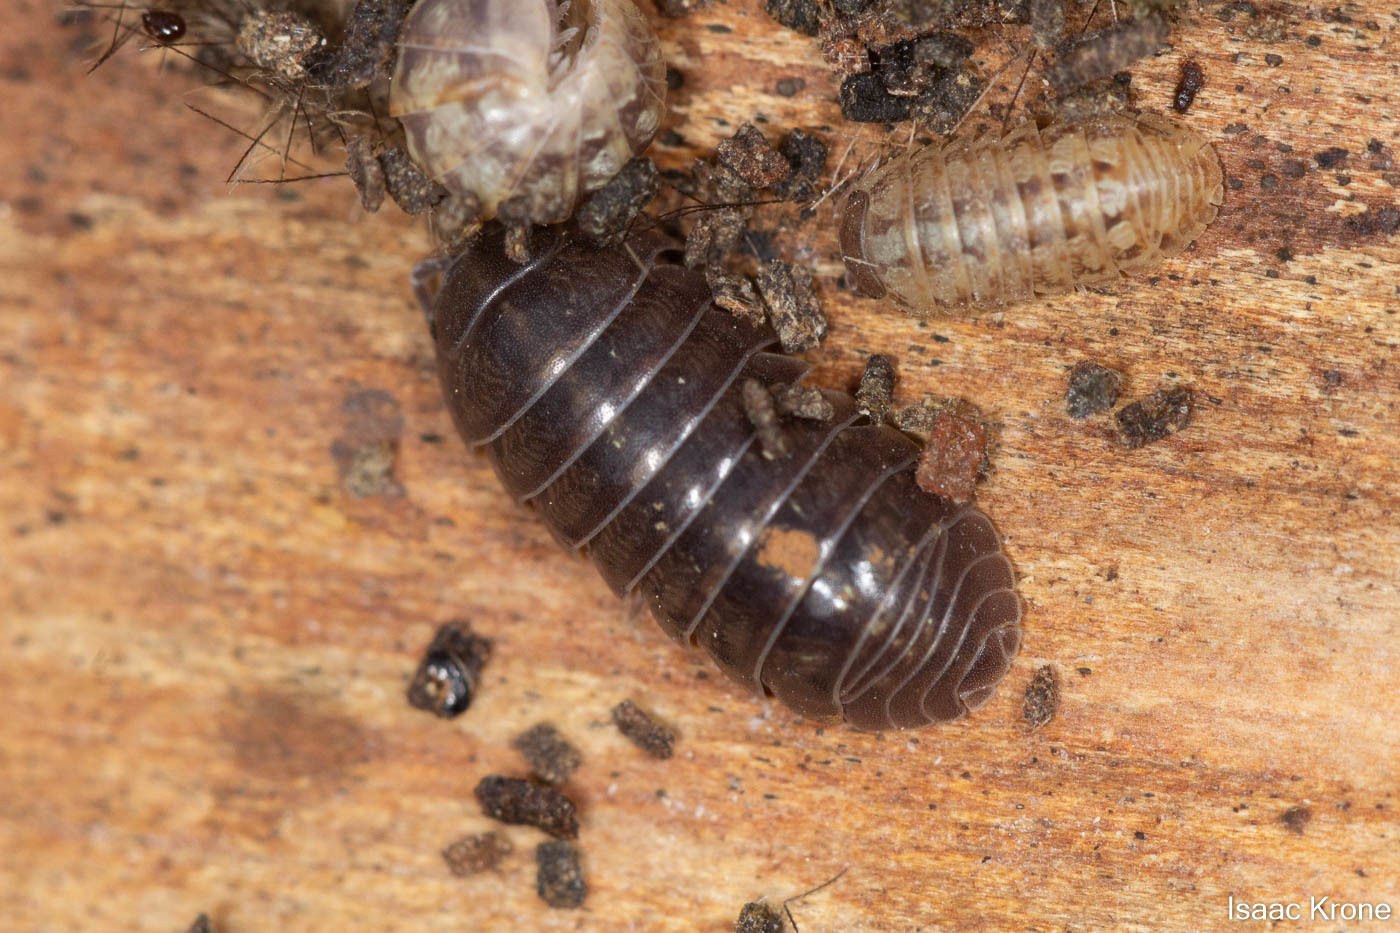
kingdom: Animalia
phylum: Arthropoda
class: Malacostraca
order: Isopoda
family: Armadillidiidae
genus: Armadillidium
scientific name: Armadillidium vulgare
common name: Common pill woodlouse
